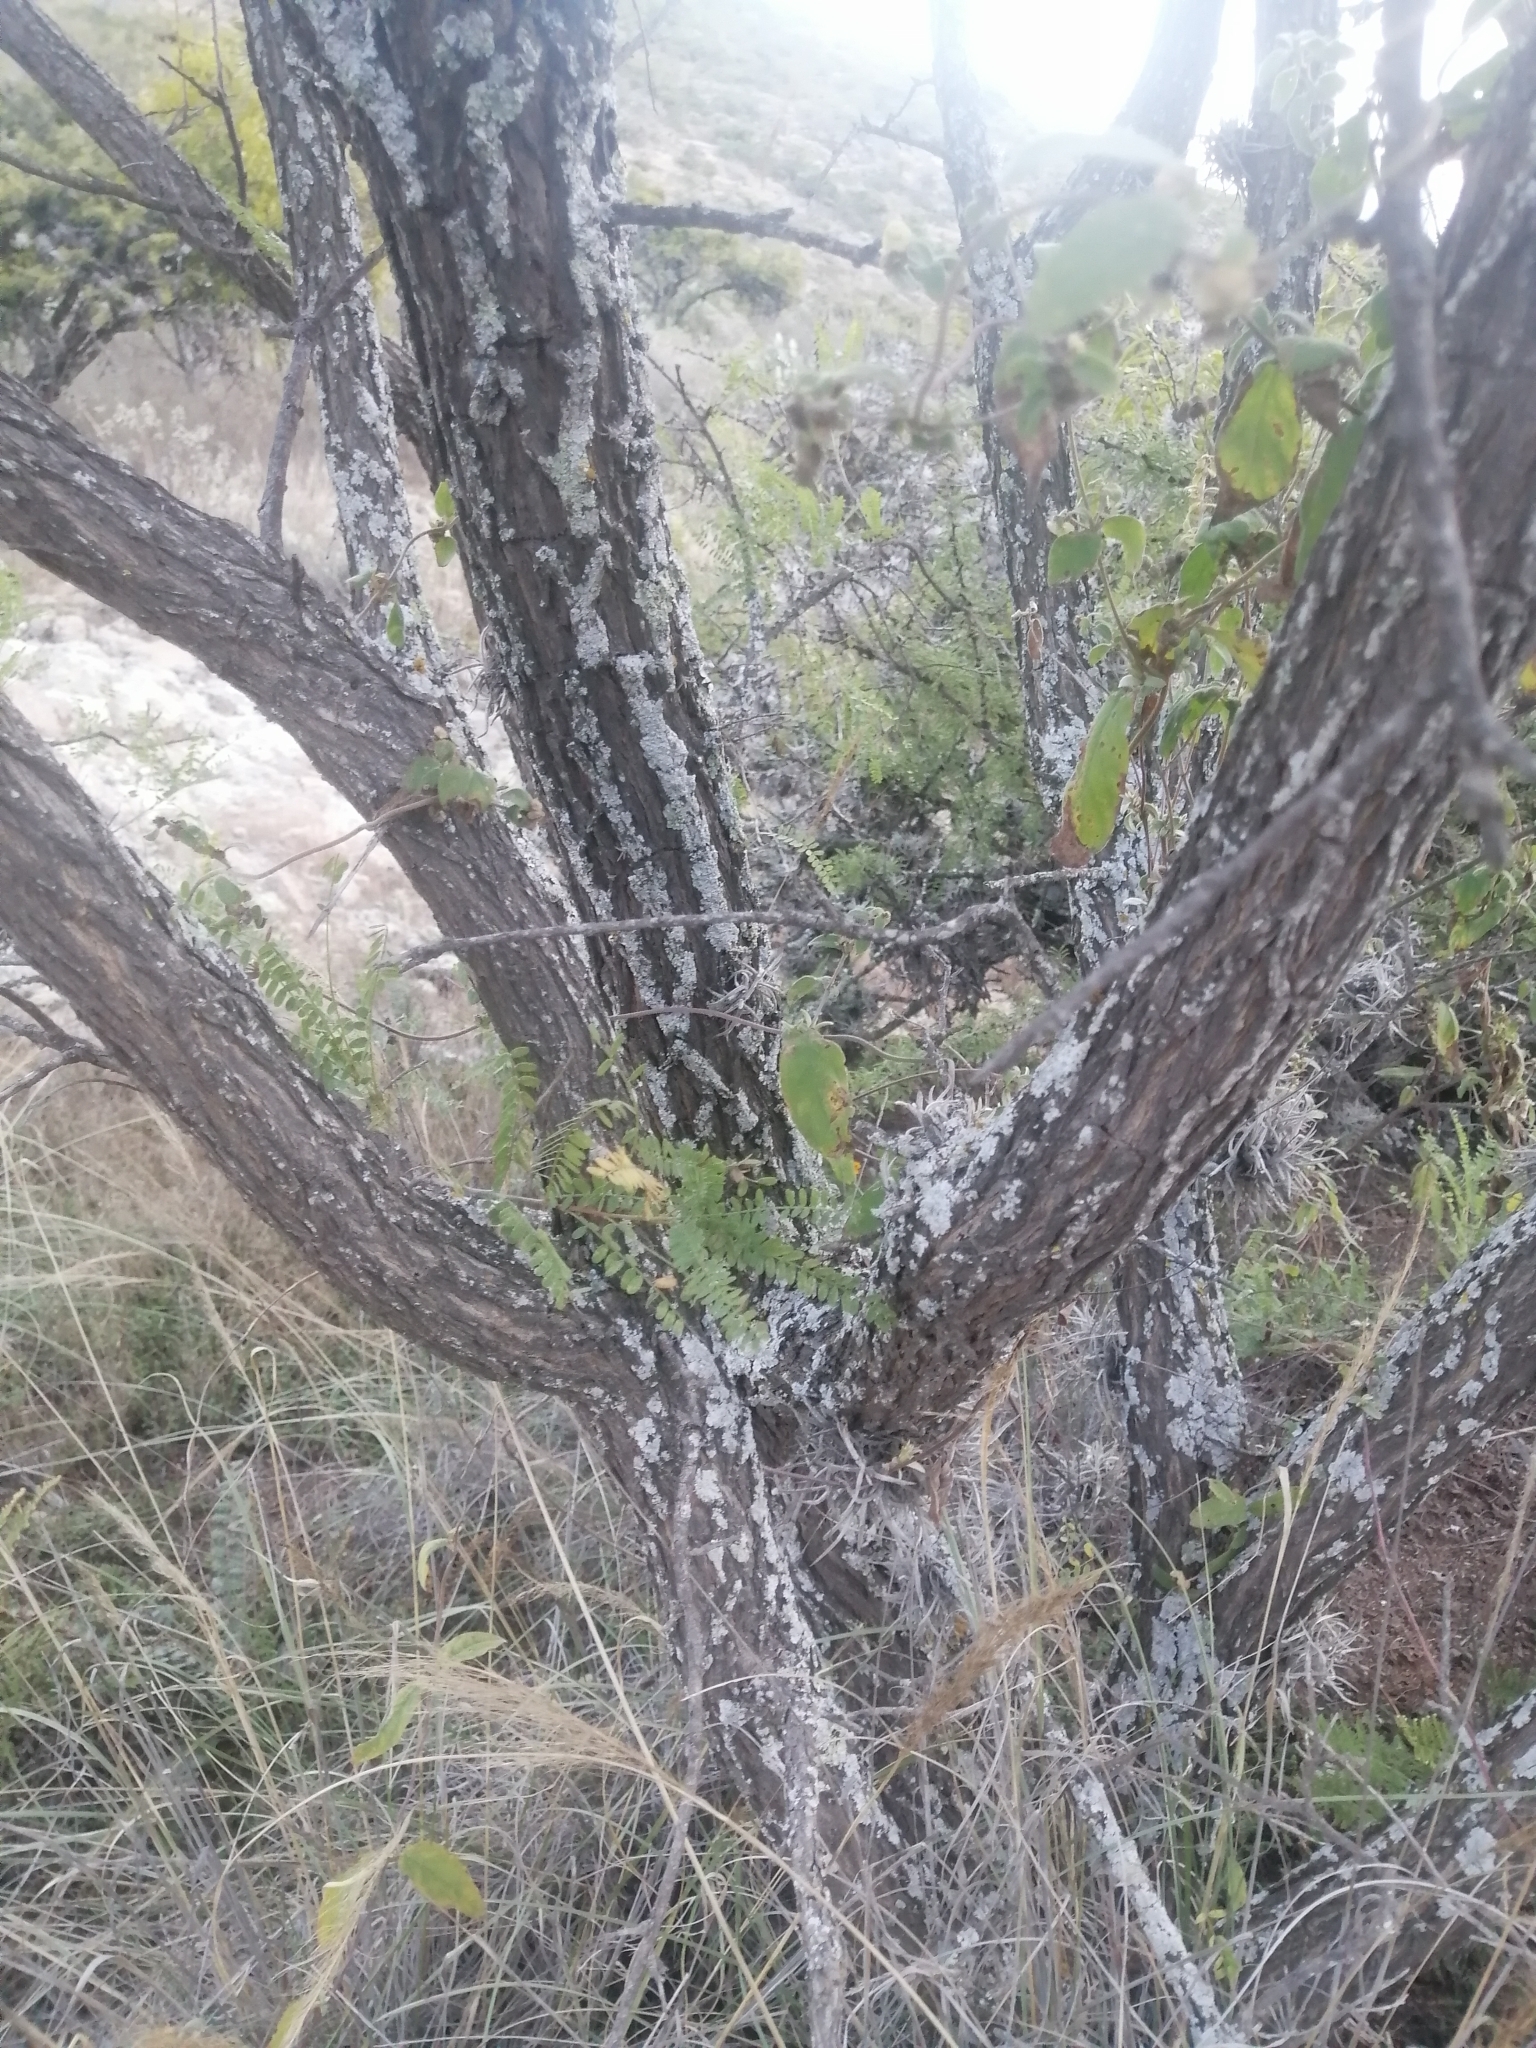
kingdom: Plantae
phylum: Tracheophyta
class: Magnoliopsida
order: Fabales
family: Fabaceae
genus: Eysenhardtia
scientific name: Eysenhardtia polystachya
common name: Kidneywood
